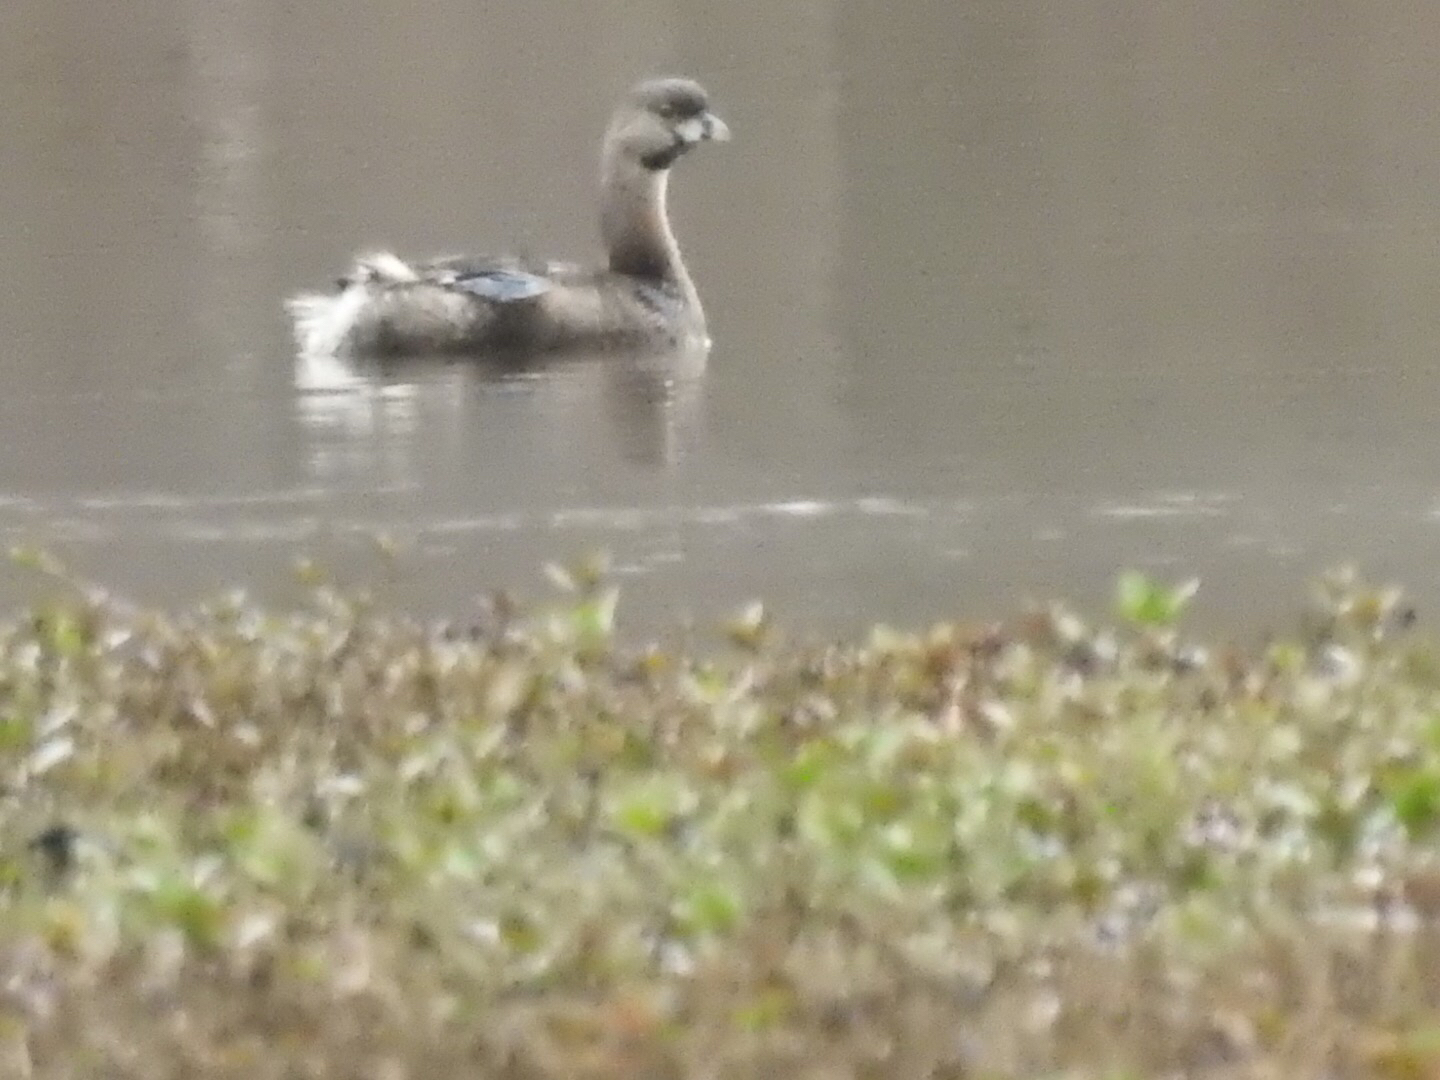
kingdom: Animalia
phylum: Chordata
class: Aves
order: Podicipediformes
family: Podicipedidae
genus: Podilymbus
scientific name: Podilymbus podiceps
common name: Pied-billed grebe
